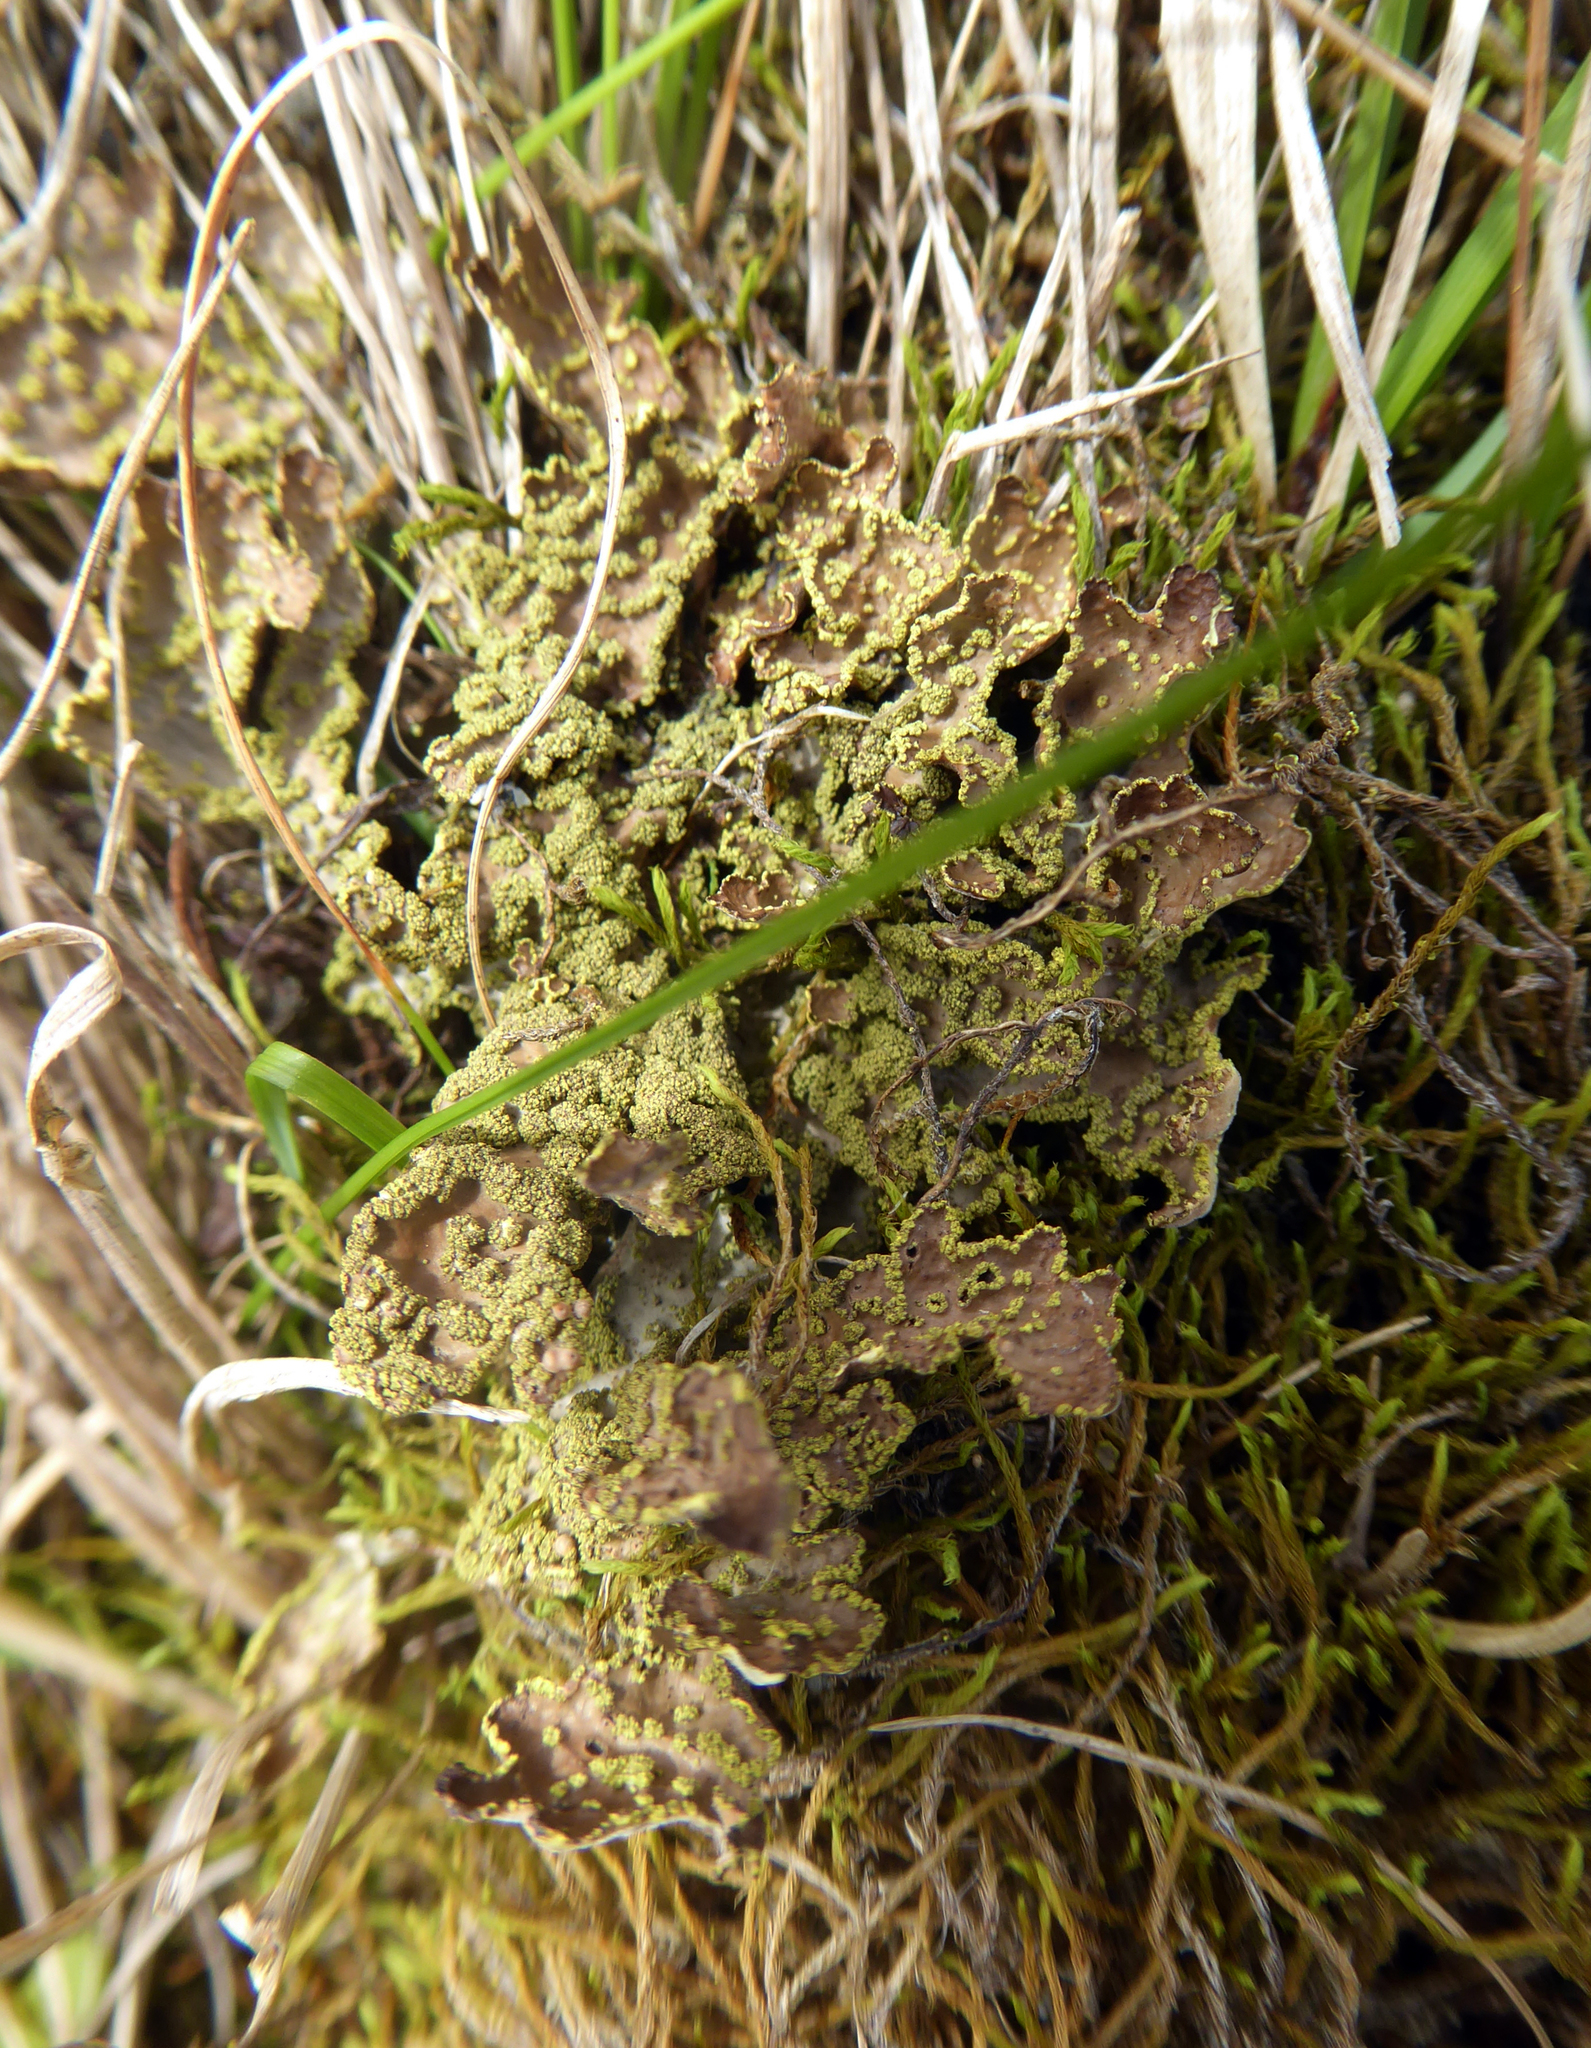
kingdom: Fungi
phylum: Ascomycota
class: Lecanoromycetes
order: Peltigerales
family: Lobariaceae
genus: Pseudocyphellaria
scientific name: Pseudocyphellaria crocata
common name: Golden specklebelly
